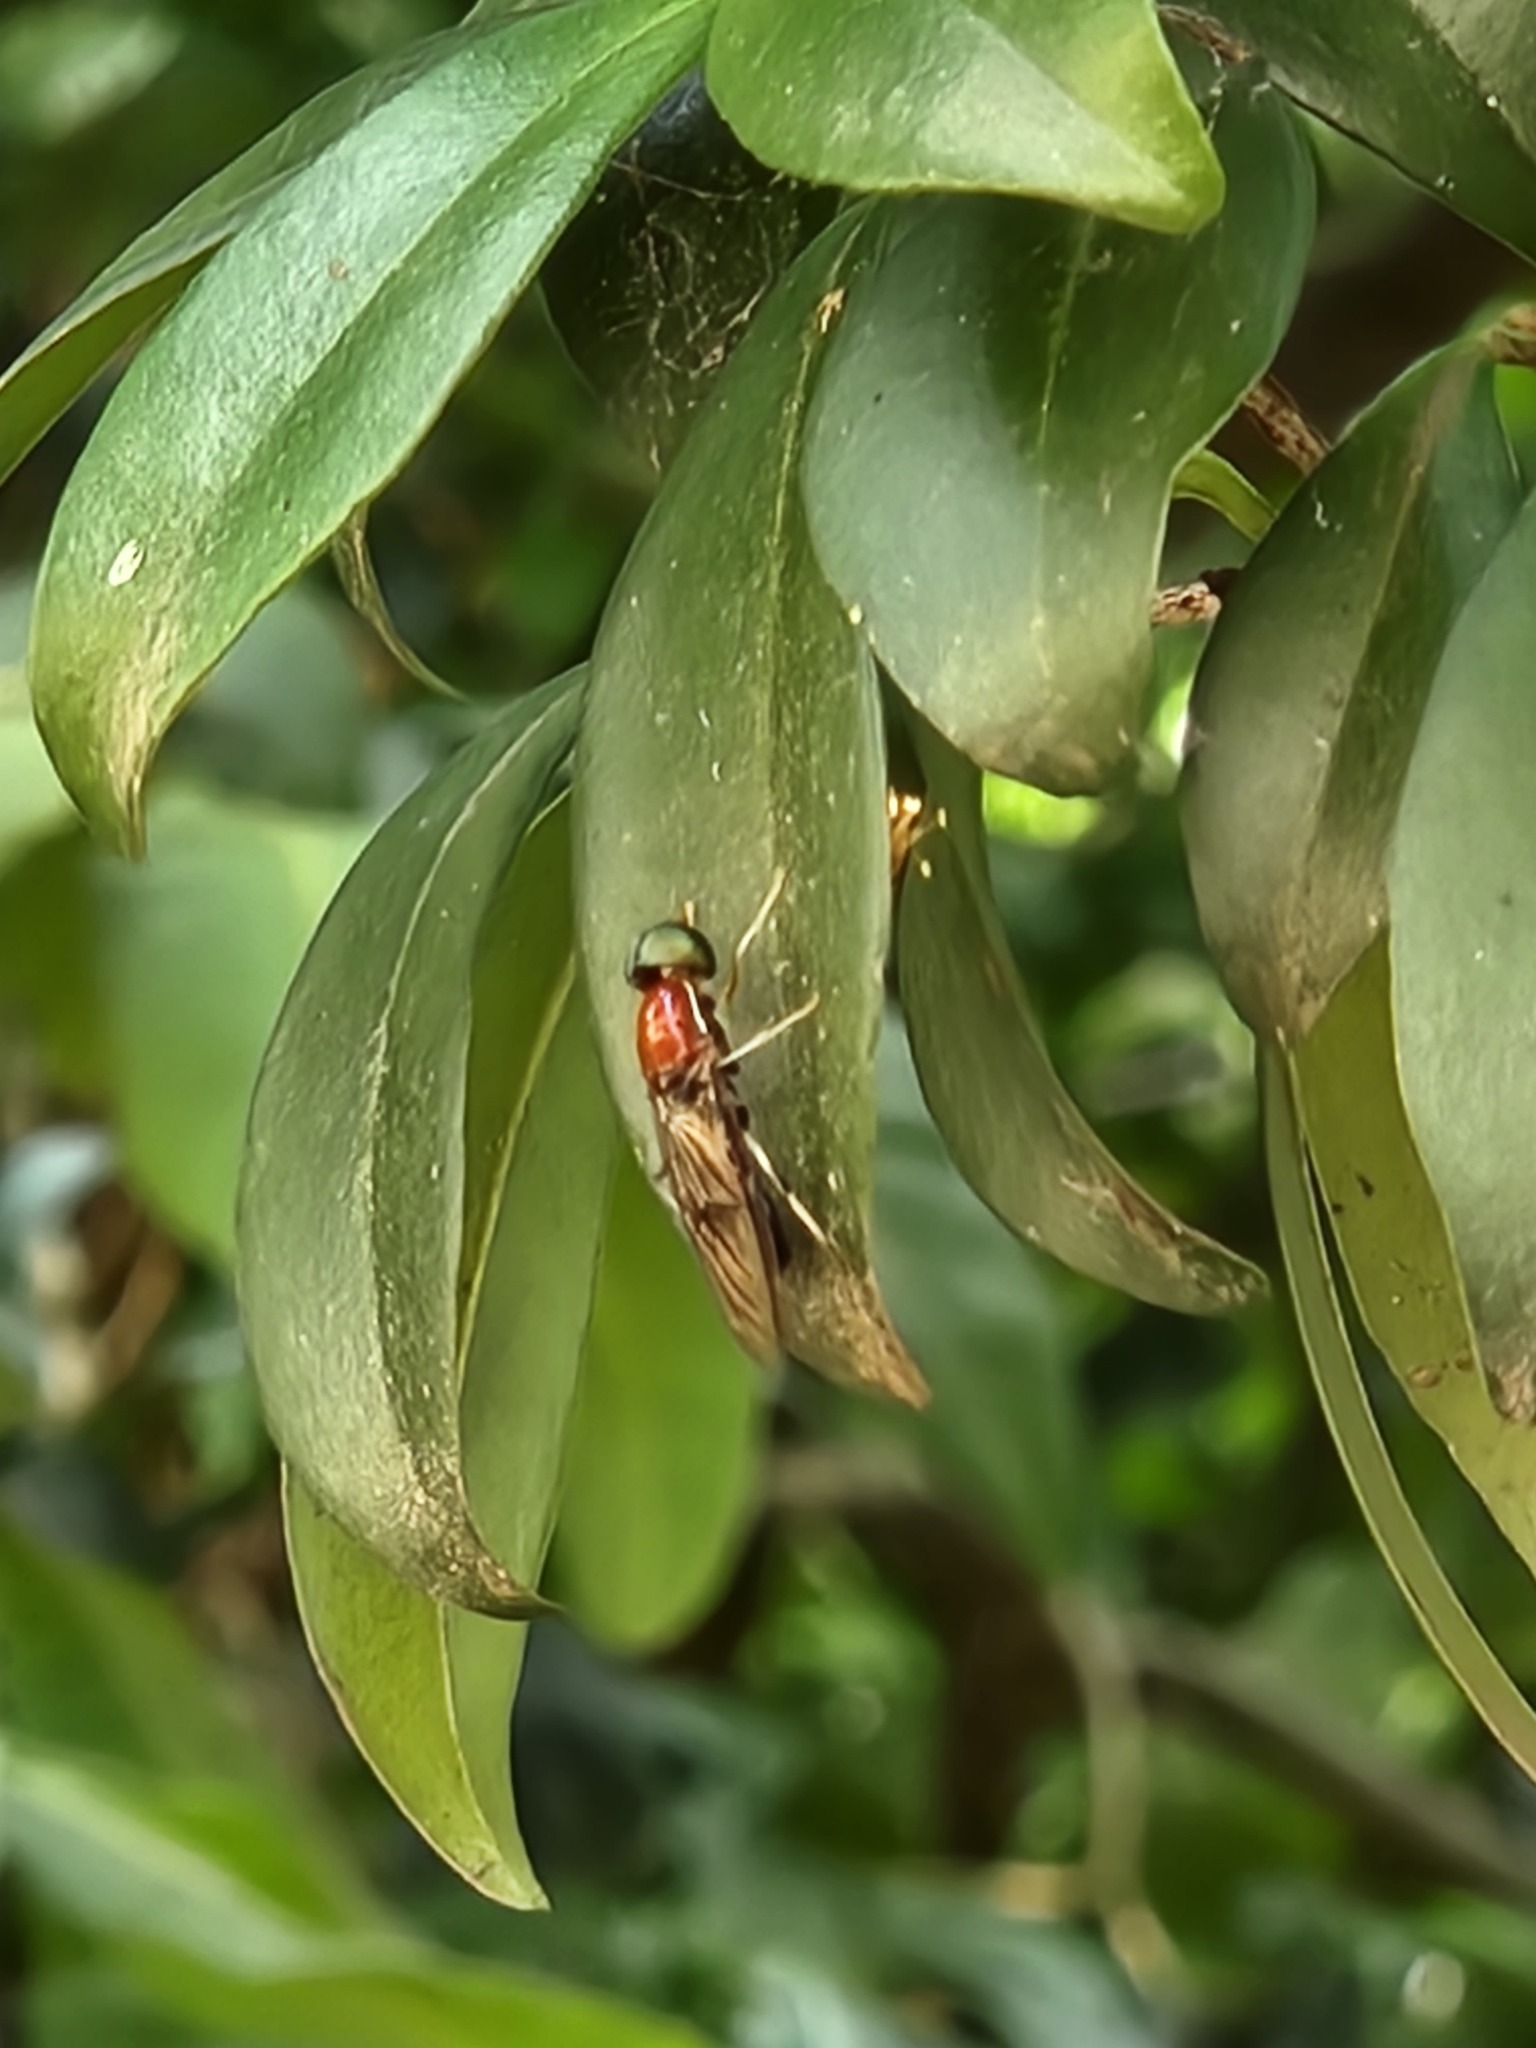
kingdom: Animalia
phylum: Arthropoda
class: Insecta
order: Diptera
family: Stratiomyidae
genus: Sargus
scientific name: Sargus thoracicus
